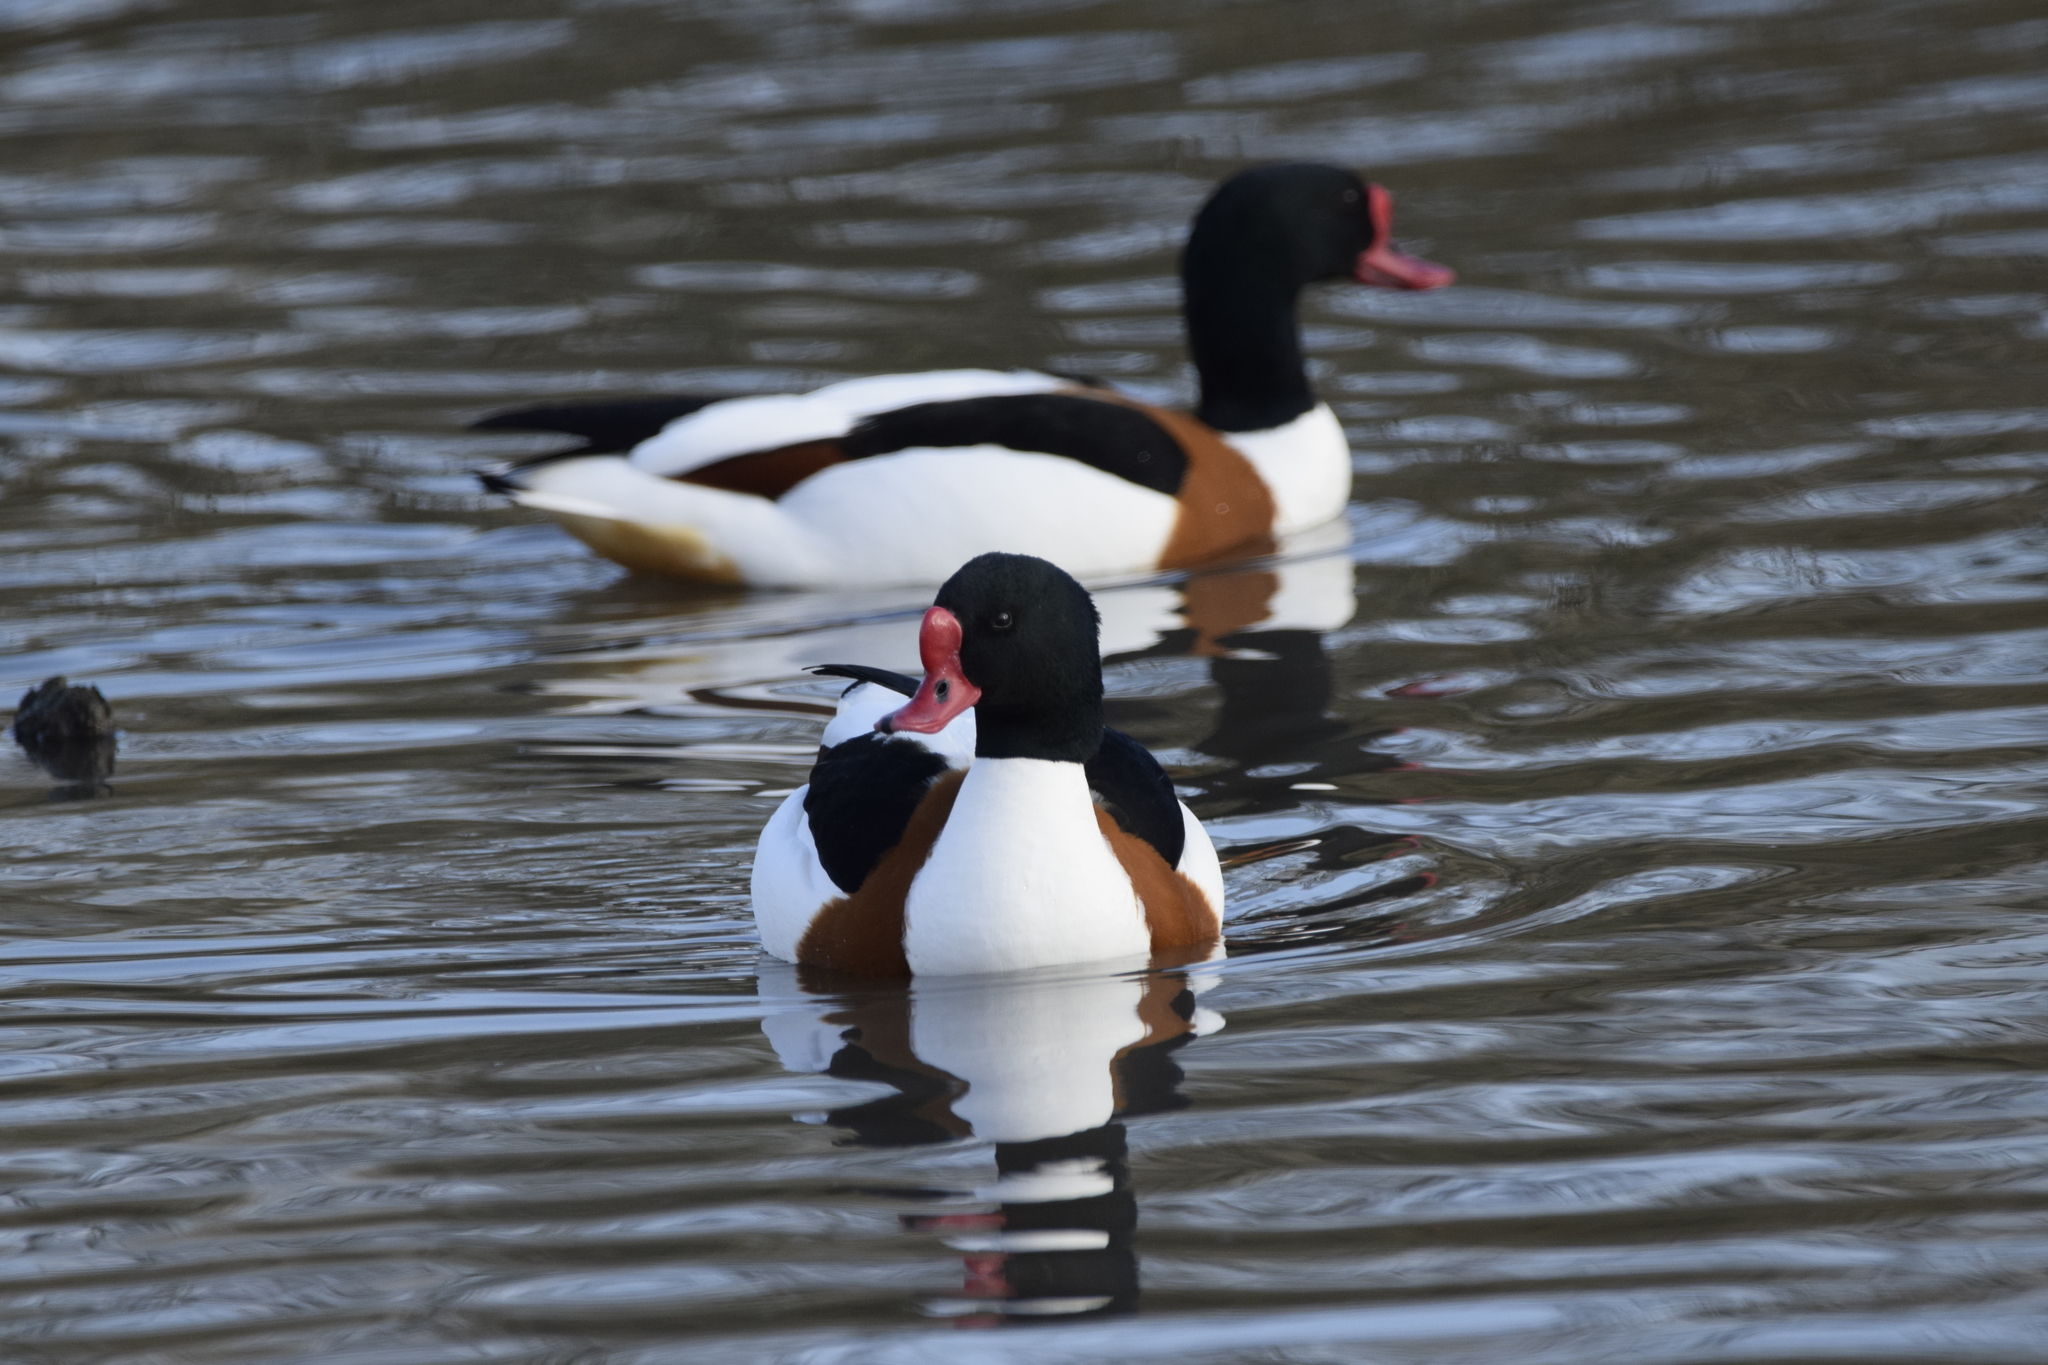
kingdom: Animalia
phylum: Chordata
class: Aves
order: Anseriformes
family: Anatidae
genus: Tadorna
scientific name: Tadorna tadorna
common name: Common shelduck
